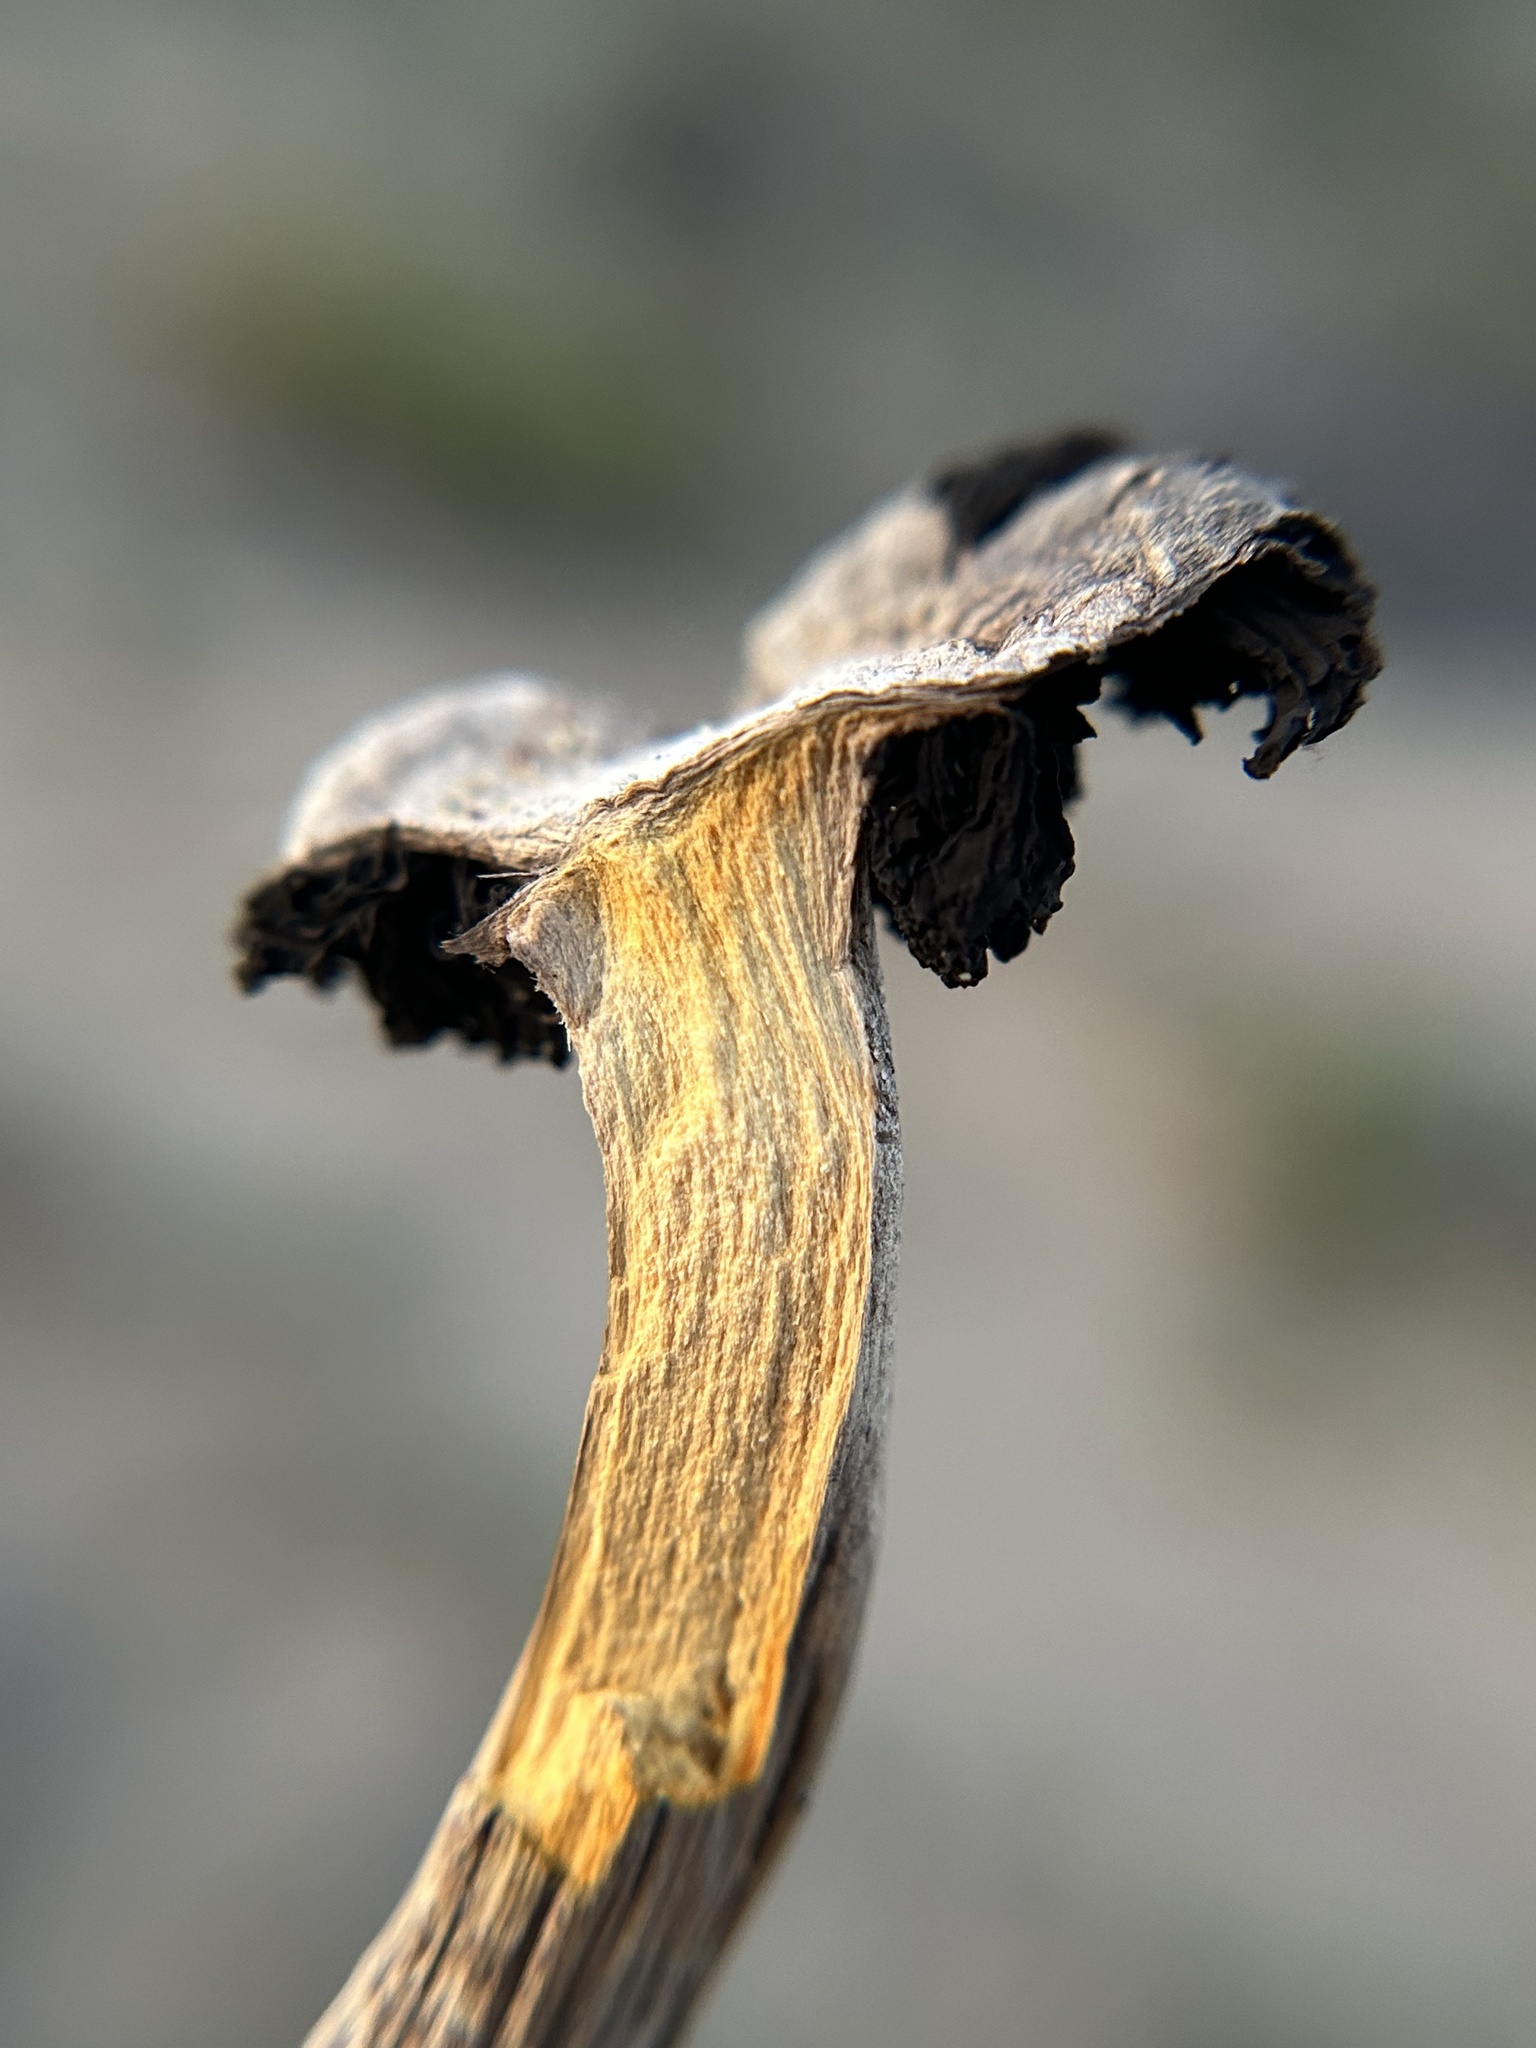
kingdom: Fungi
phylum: Basidiomycota
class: Agaricomycetes
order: Agaricales
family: Agaricaceae
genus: Montagnea
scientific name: Montagnea arenaria
